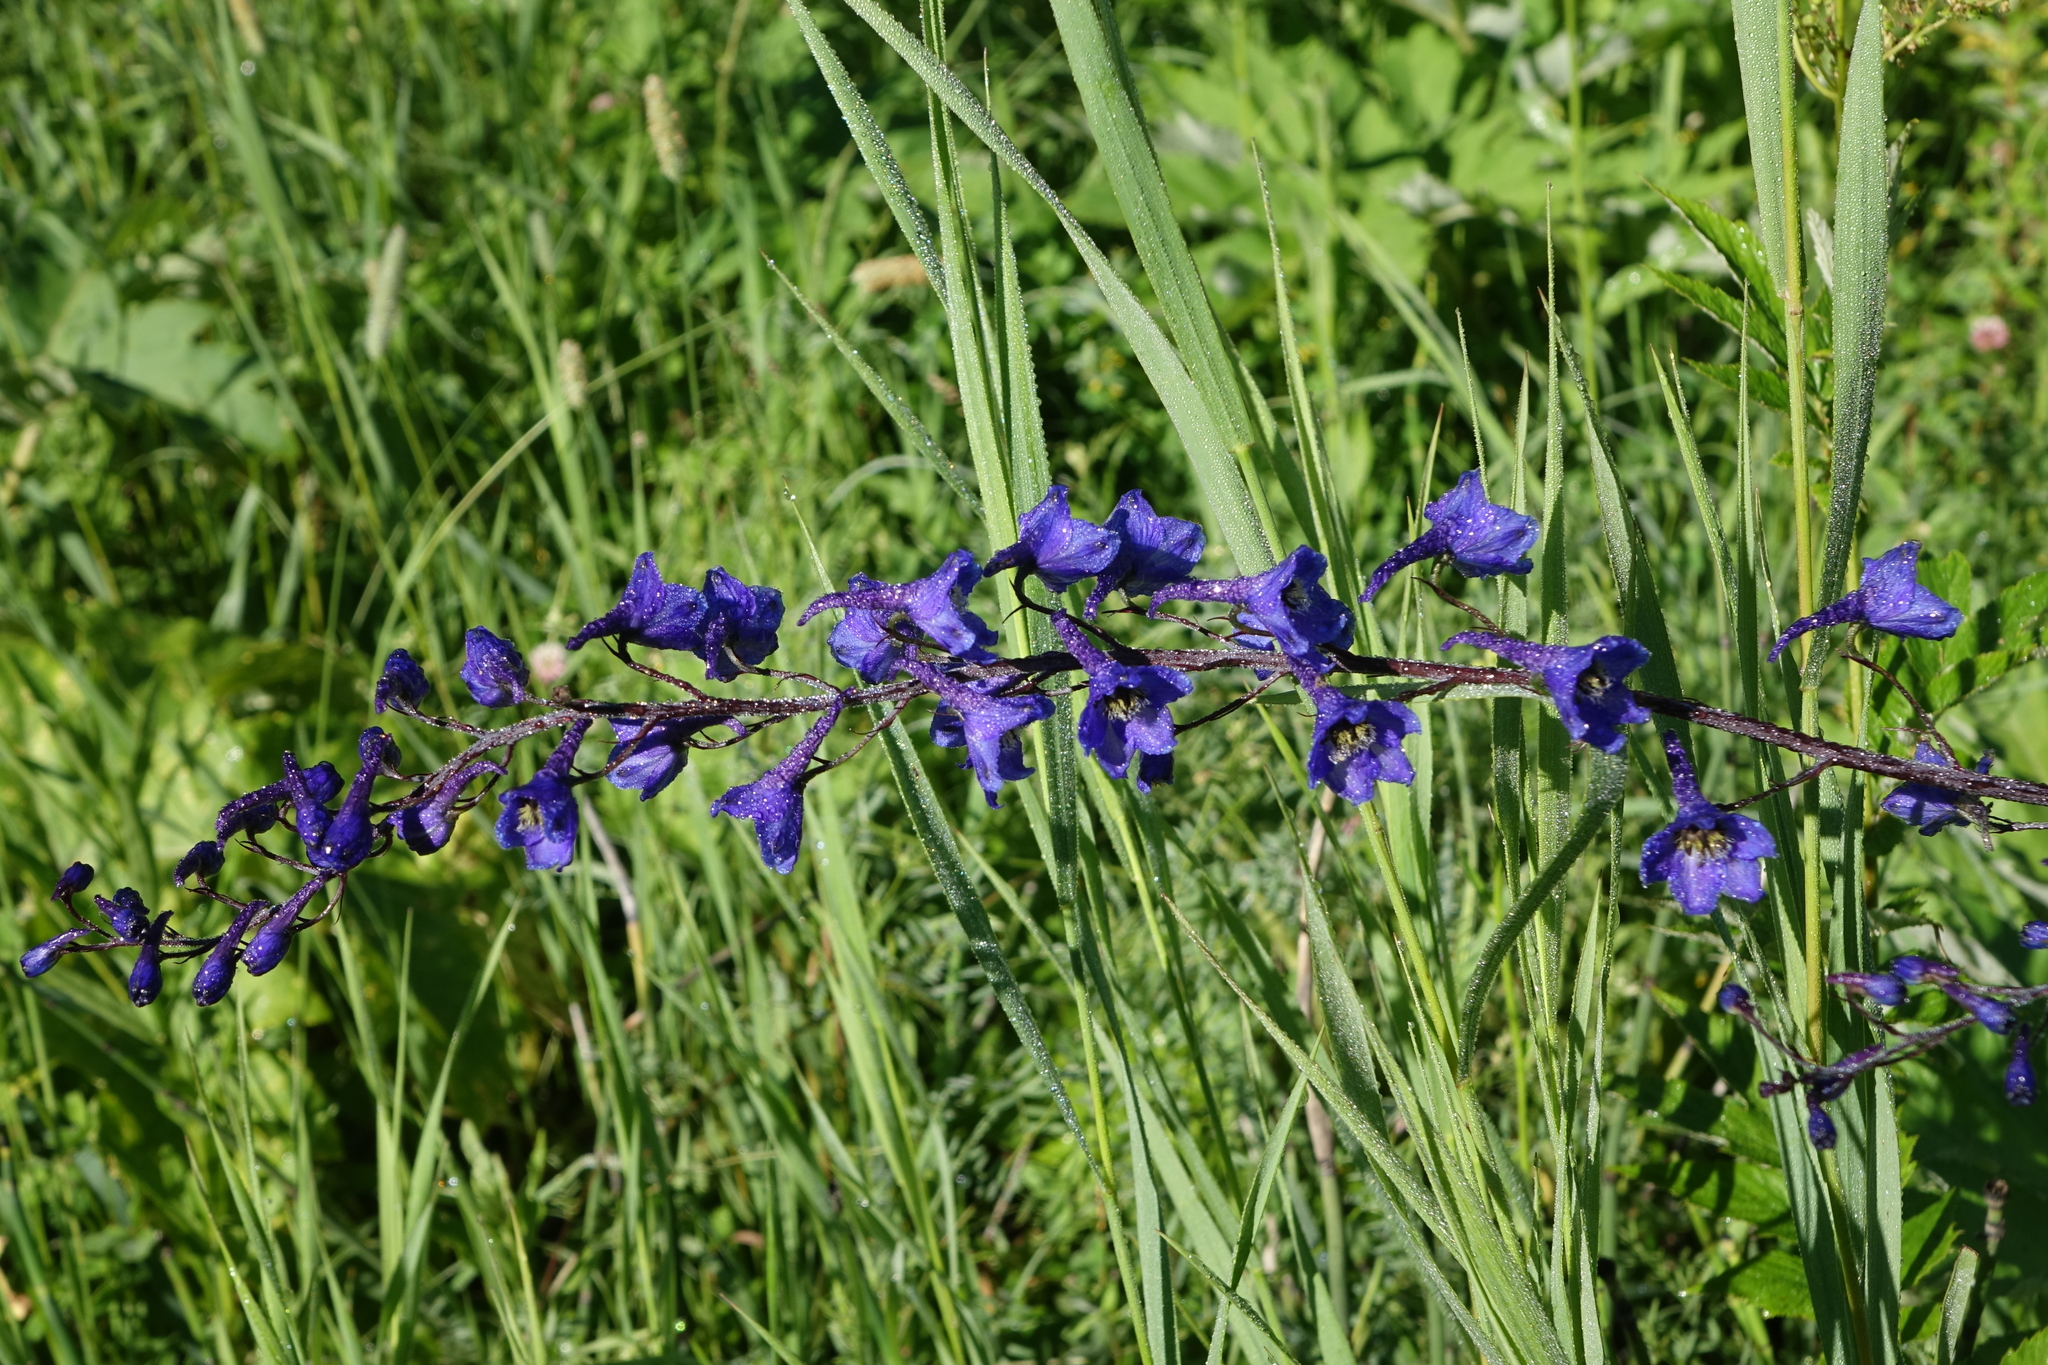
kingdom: Plantae
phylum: Tracheophyta
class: Magnoliopsida
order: Ranunculales
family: Ranunculaceae
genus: Delphinium
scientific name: Delphinium elatum
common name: Candle larkspur
